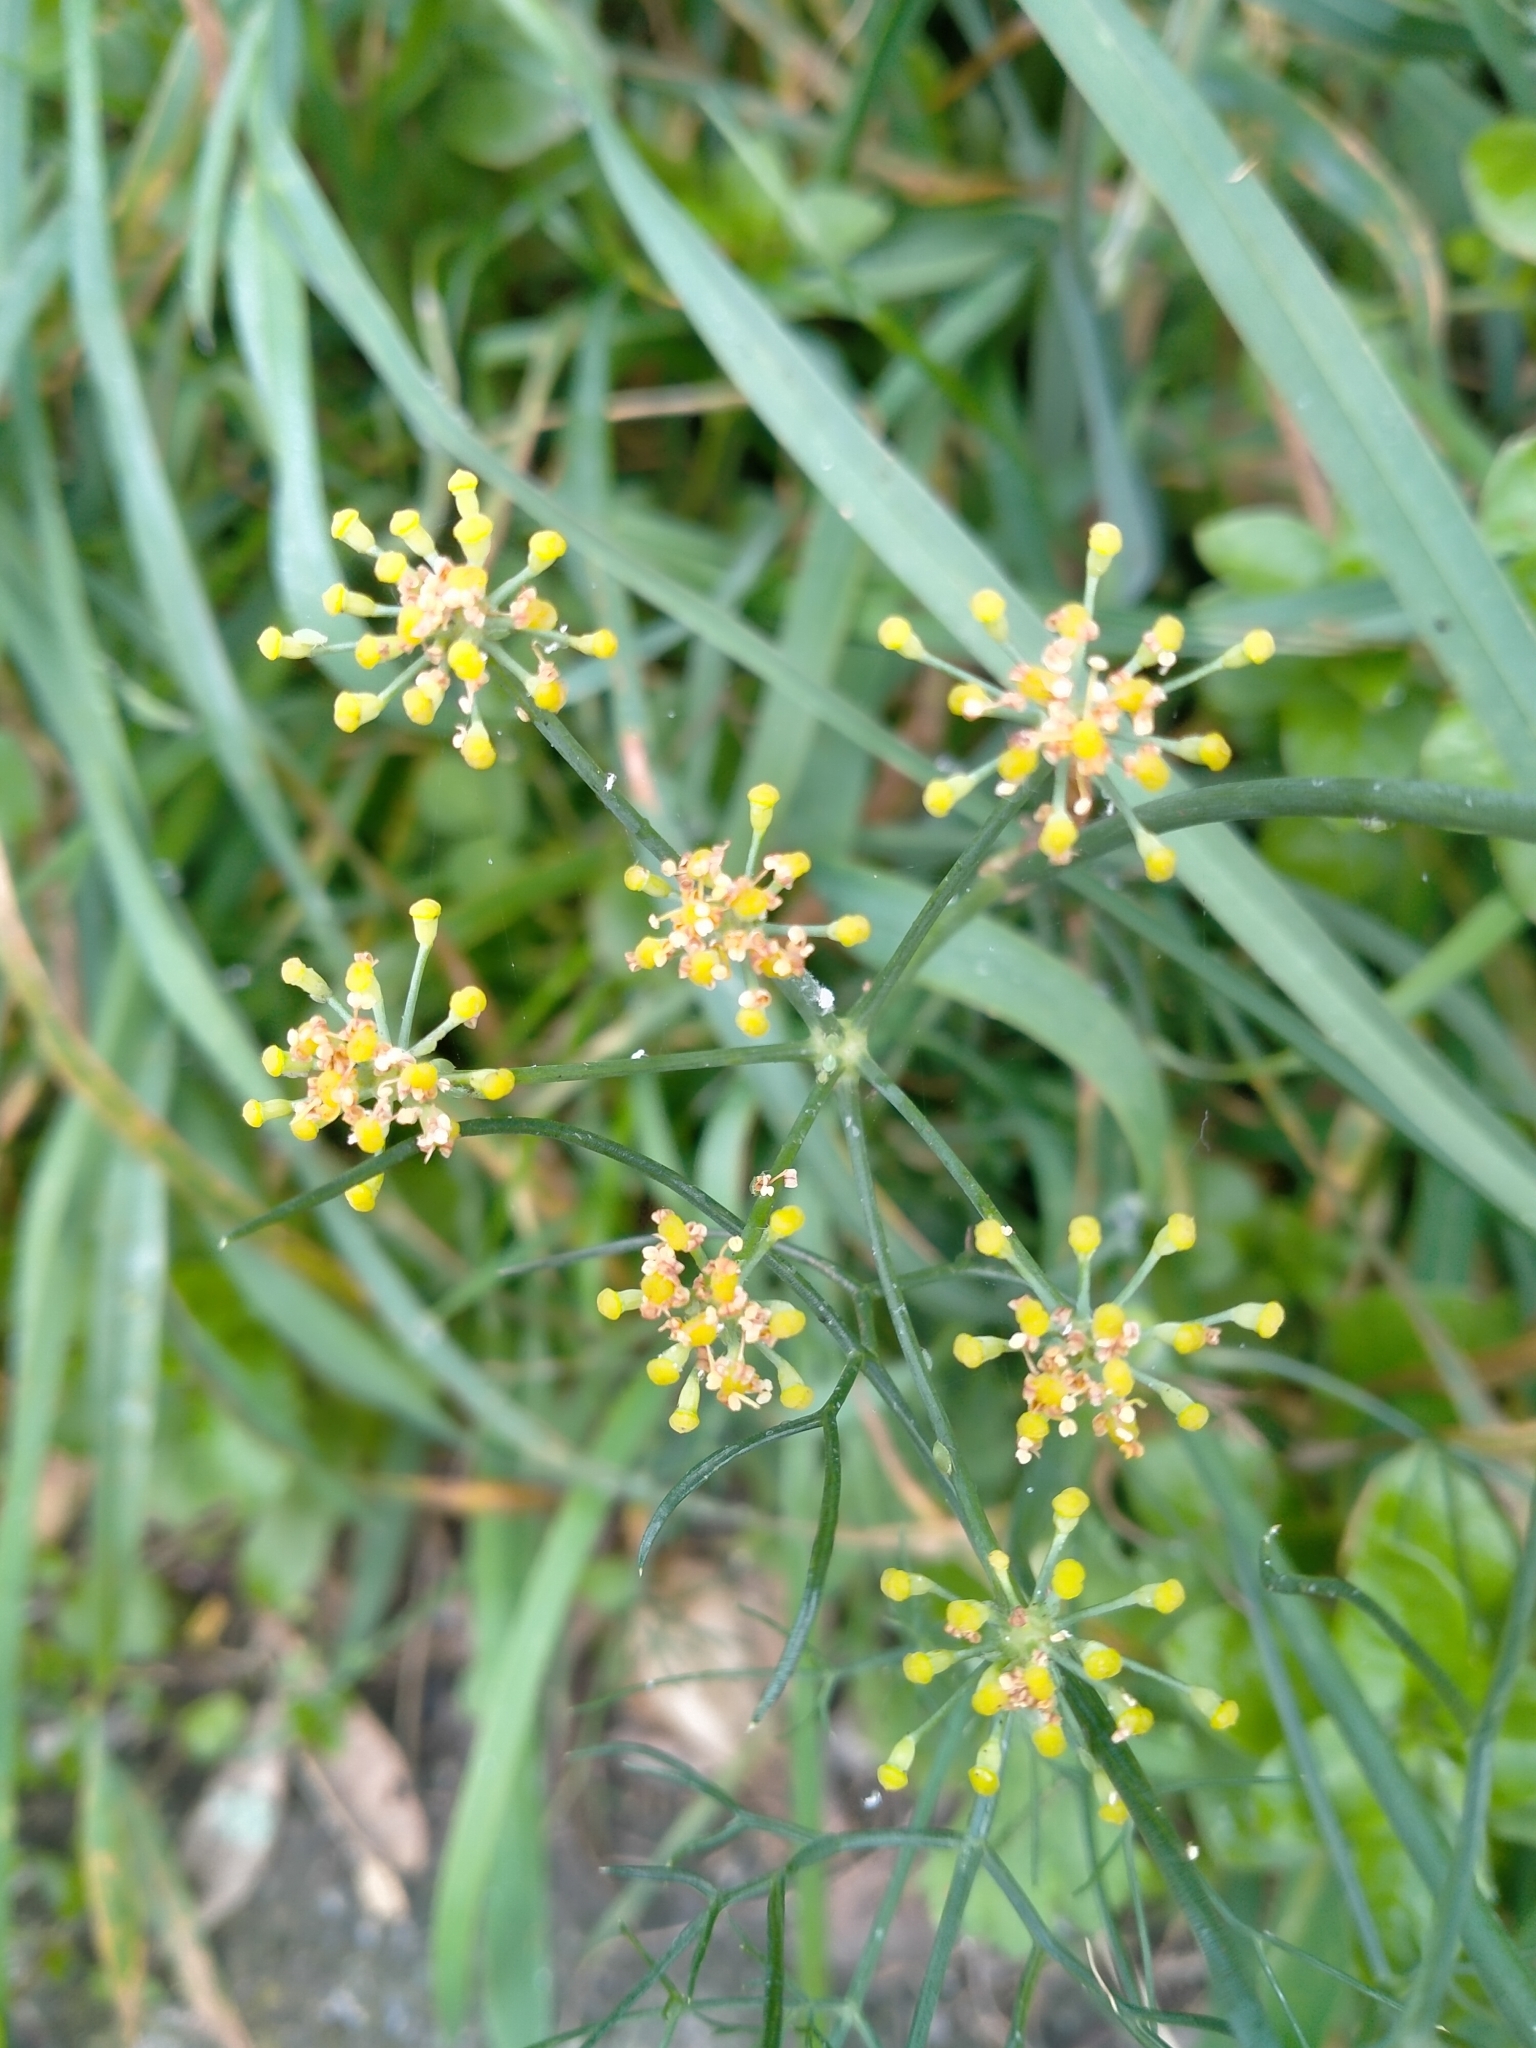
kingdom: Plantae
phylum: Tracheophyta
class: Magnoliopsida
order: Apiales
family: Apiaceae
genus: Foeniculum
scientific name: Foeniculum vulgare
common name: Fennel
